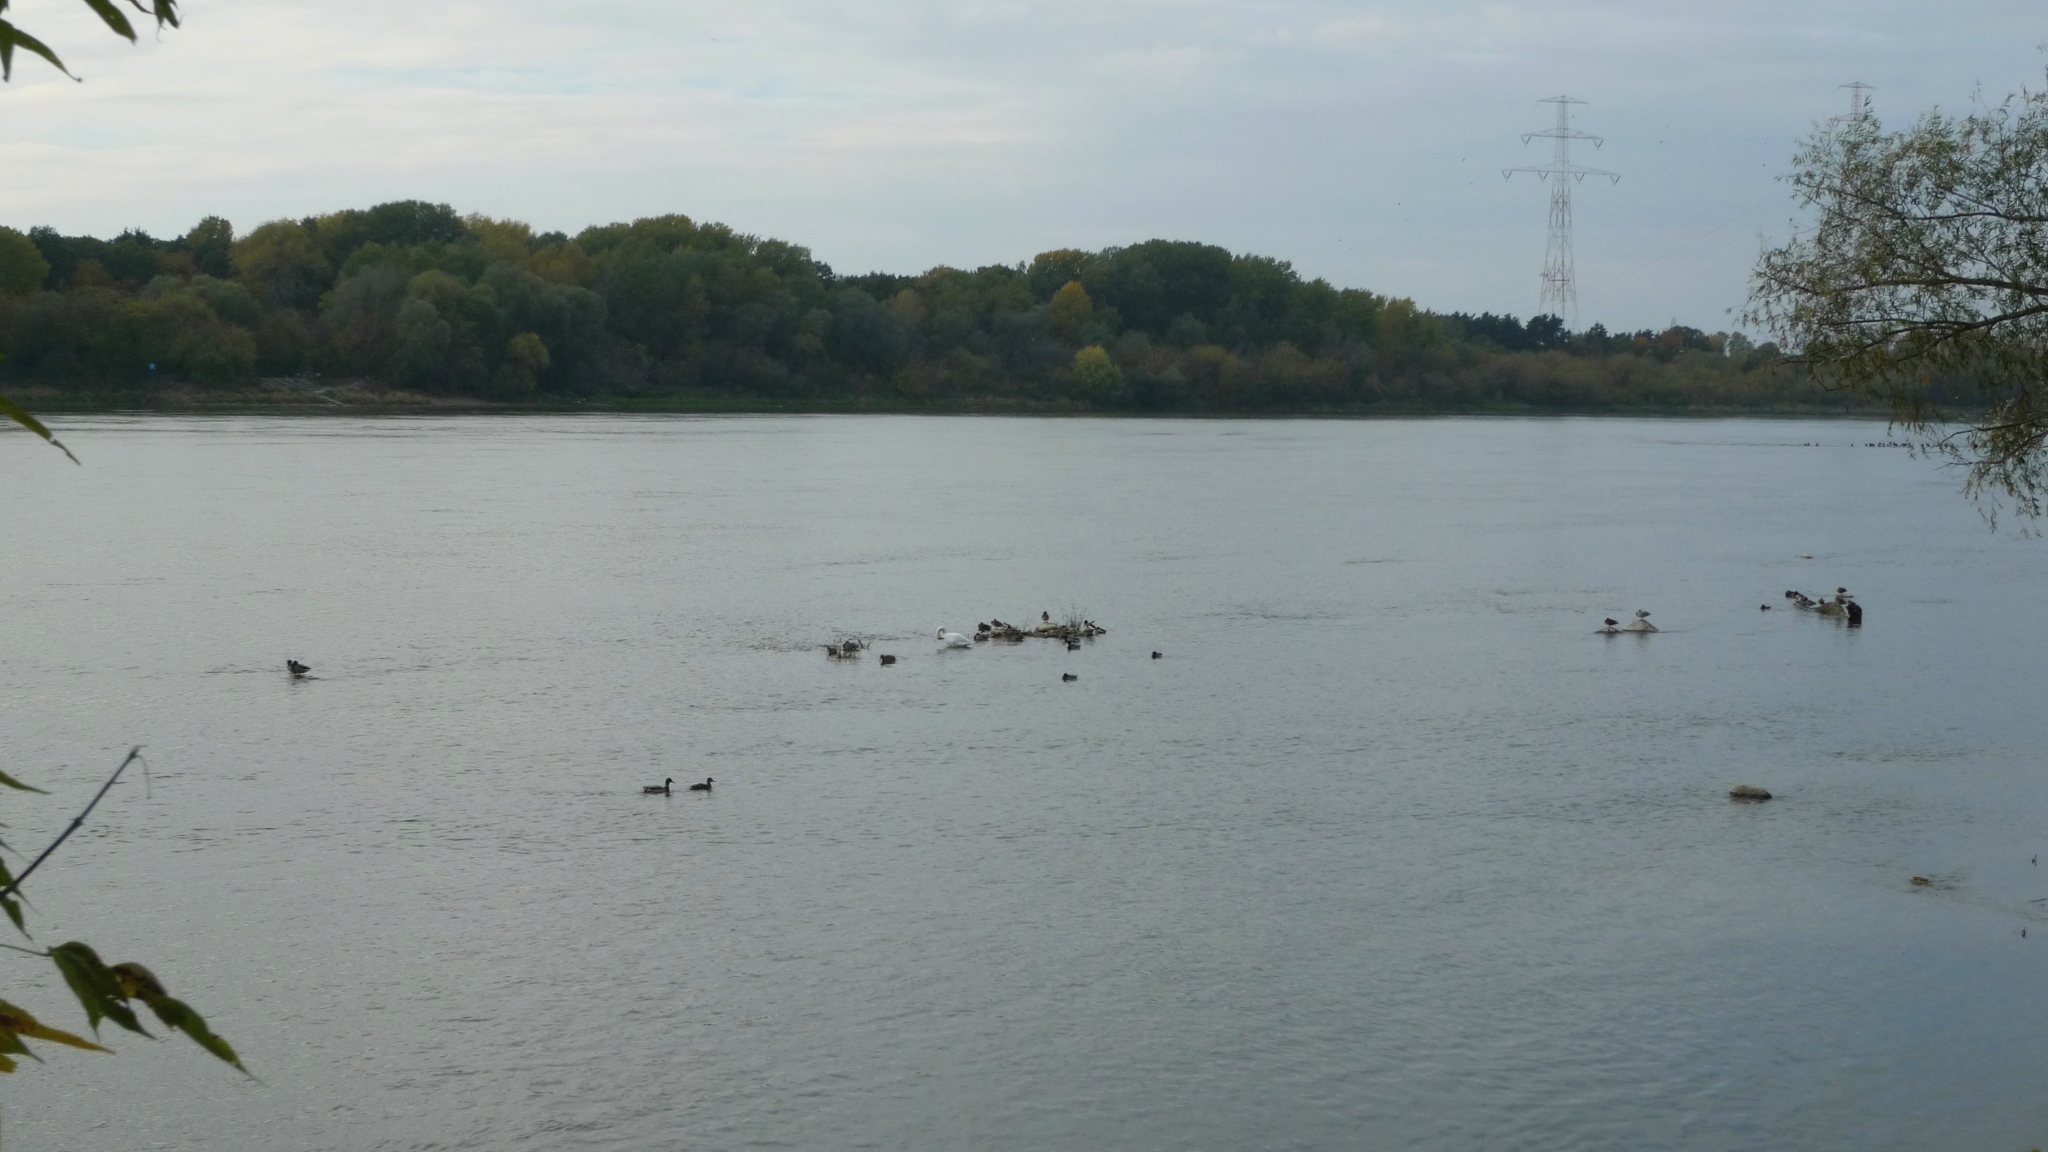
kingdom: Animalia
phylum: Chordata
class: Aves
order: Anseriformes
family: Anatidae
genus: Cygnus
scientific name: Cygnus olor
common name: Mute swan
